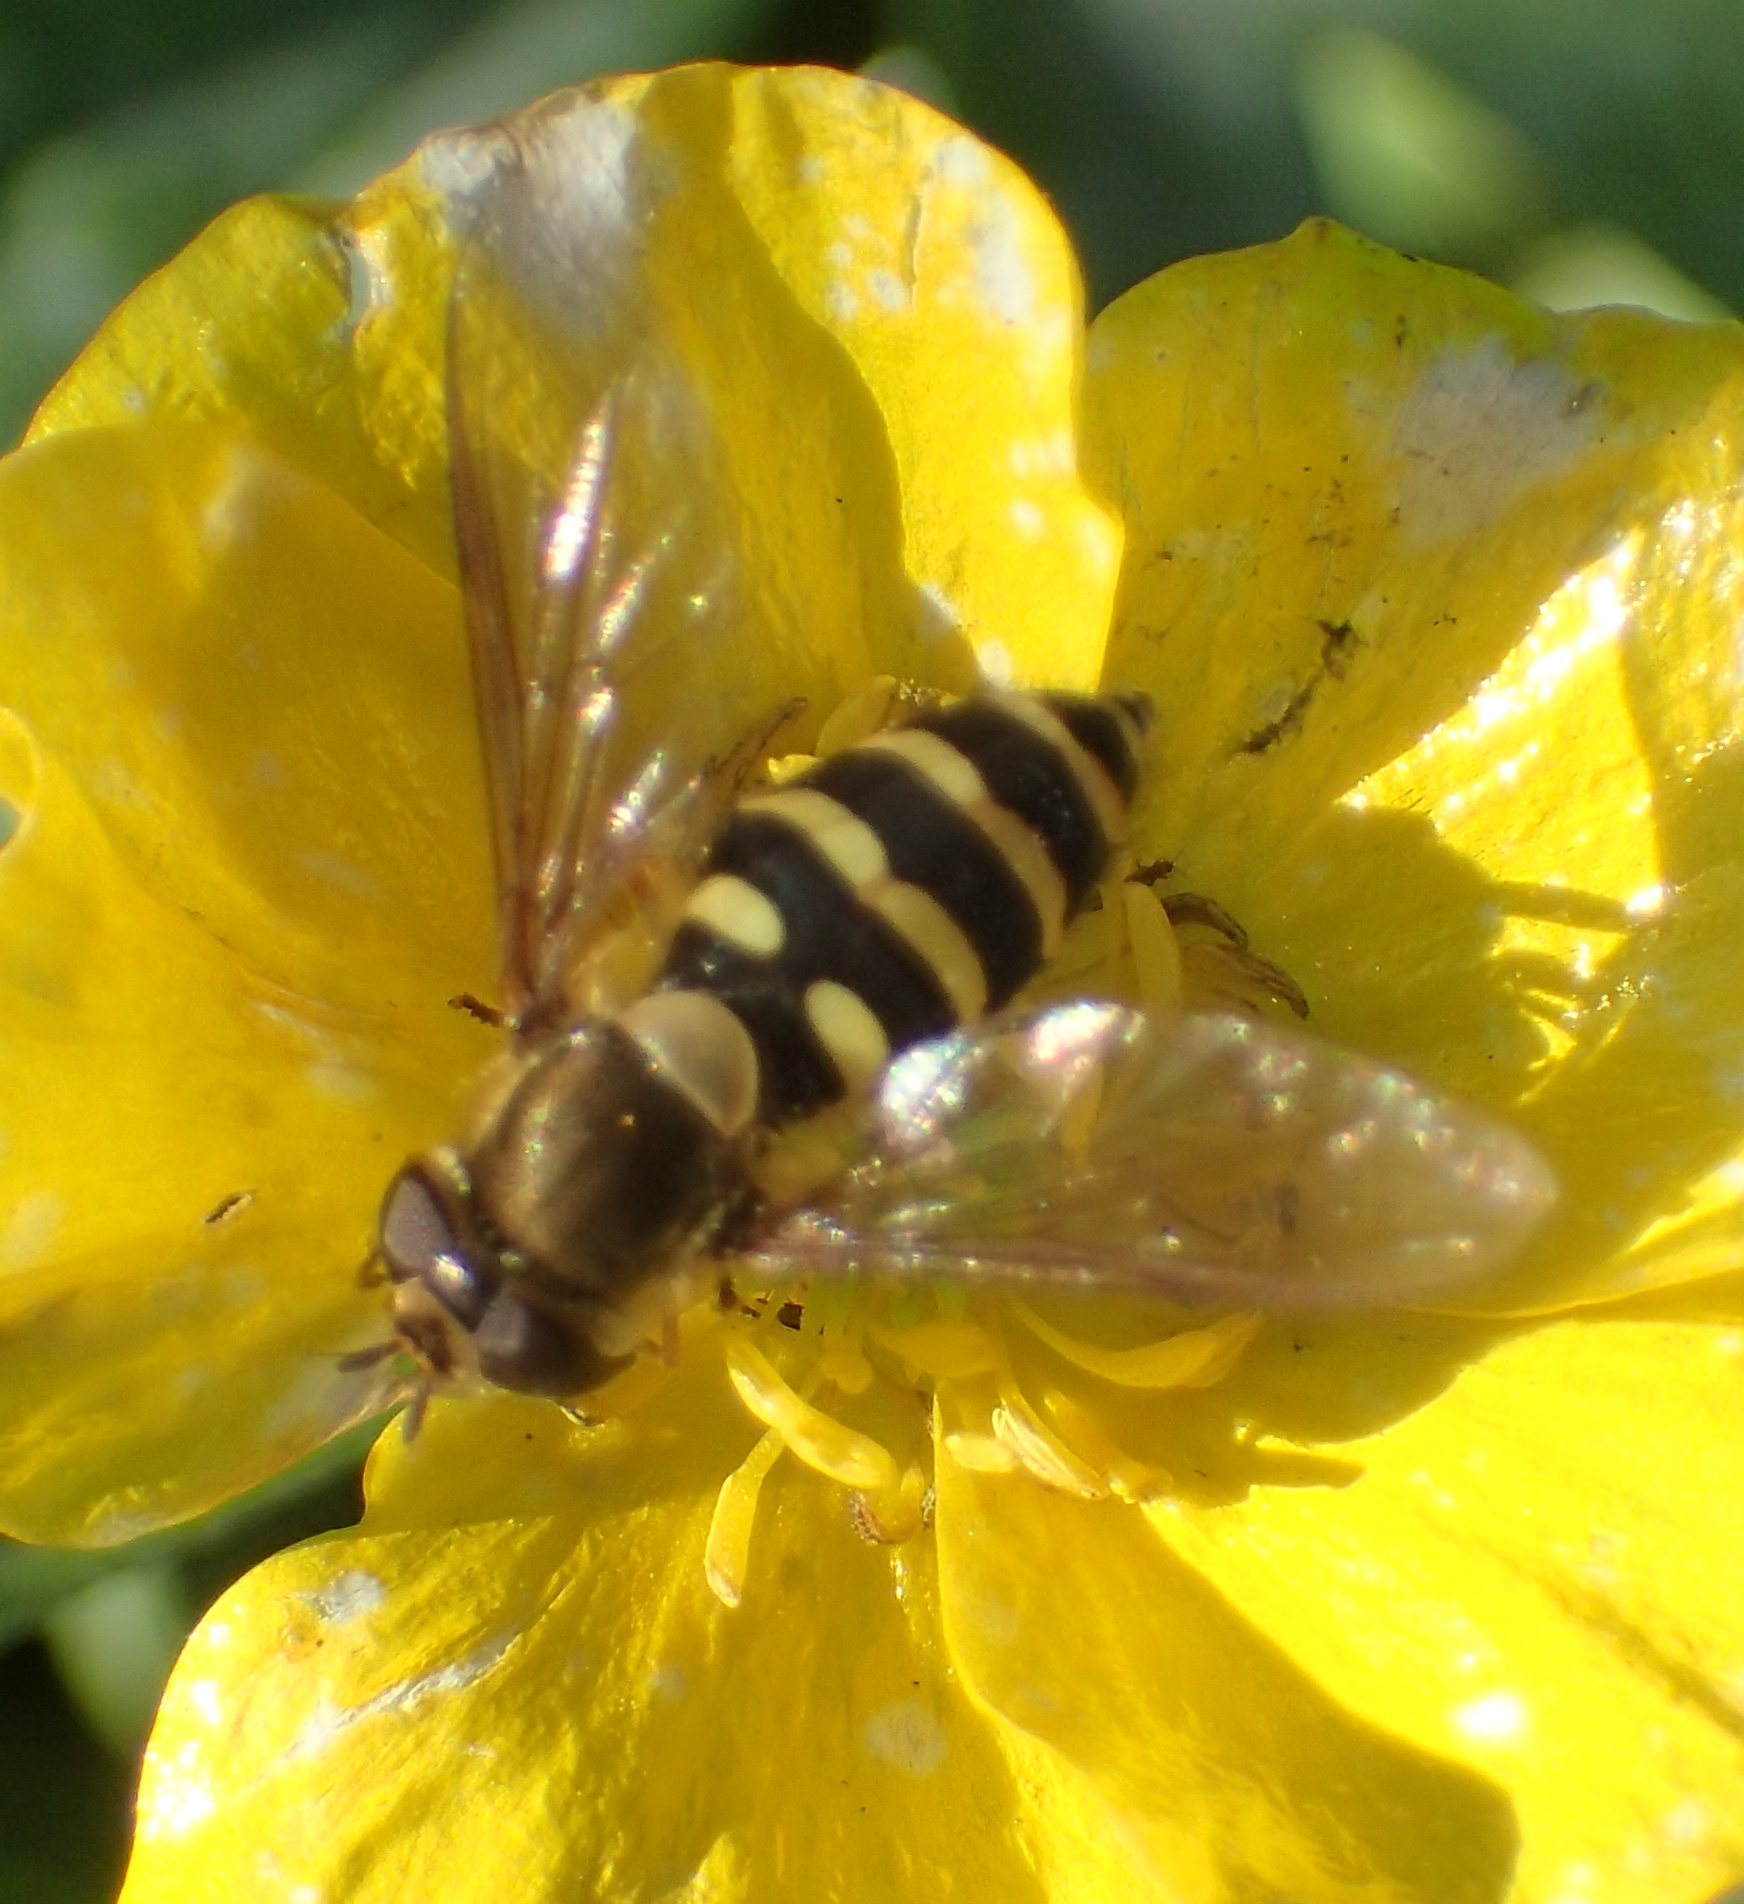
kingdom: Animalia
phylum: Arthropoda
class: Insecta
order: Diptera
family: Syrphidae
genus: Syrphus
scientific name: Syrphus
